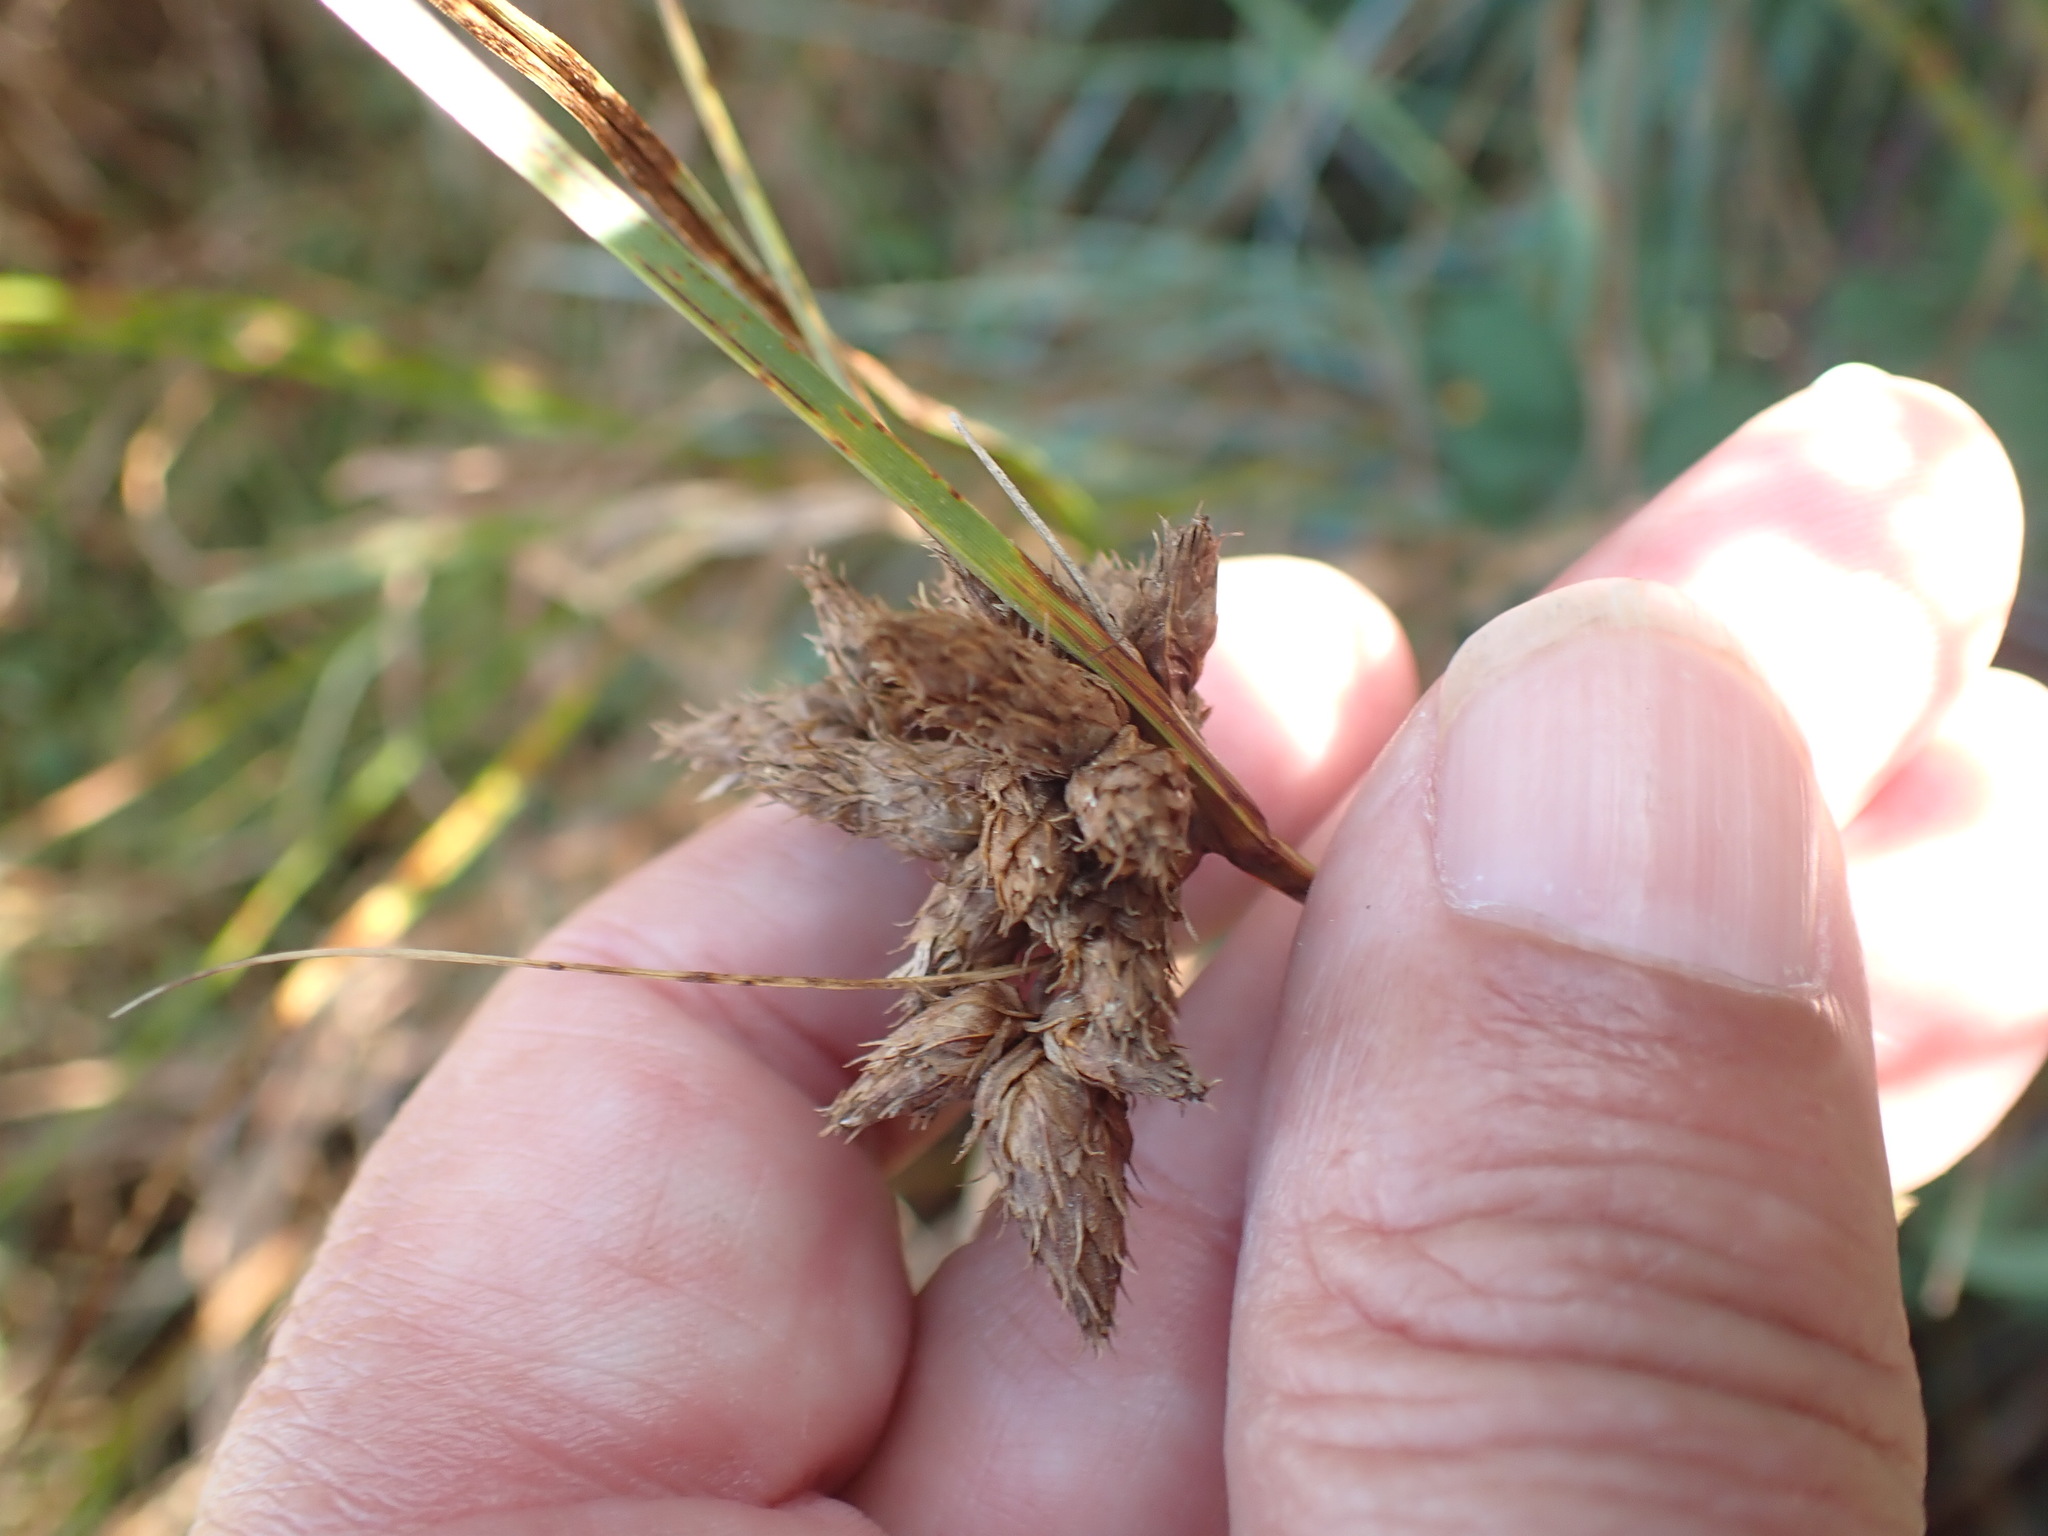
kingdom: Plantae
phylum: Tracheophyta
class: Liliopsida
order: Poales
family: Cyperaceae
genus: Bolboschoenus
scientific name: Bolboschoenus maritimus
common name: Sea club-rush
